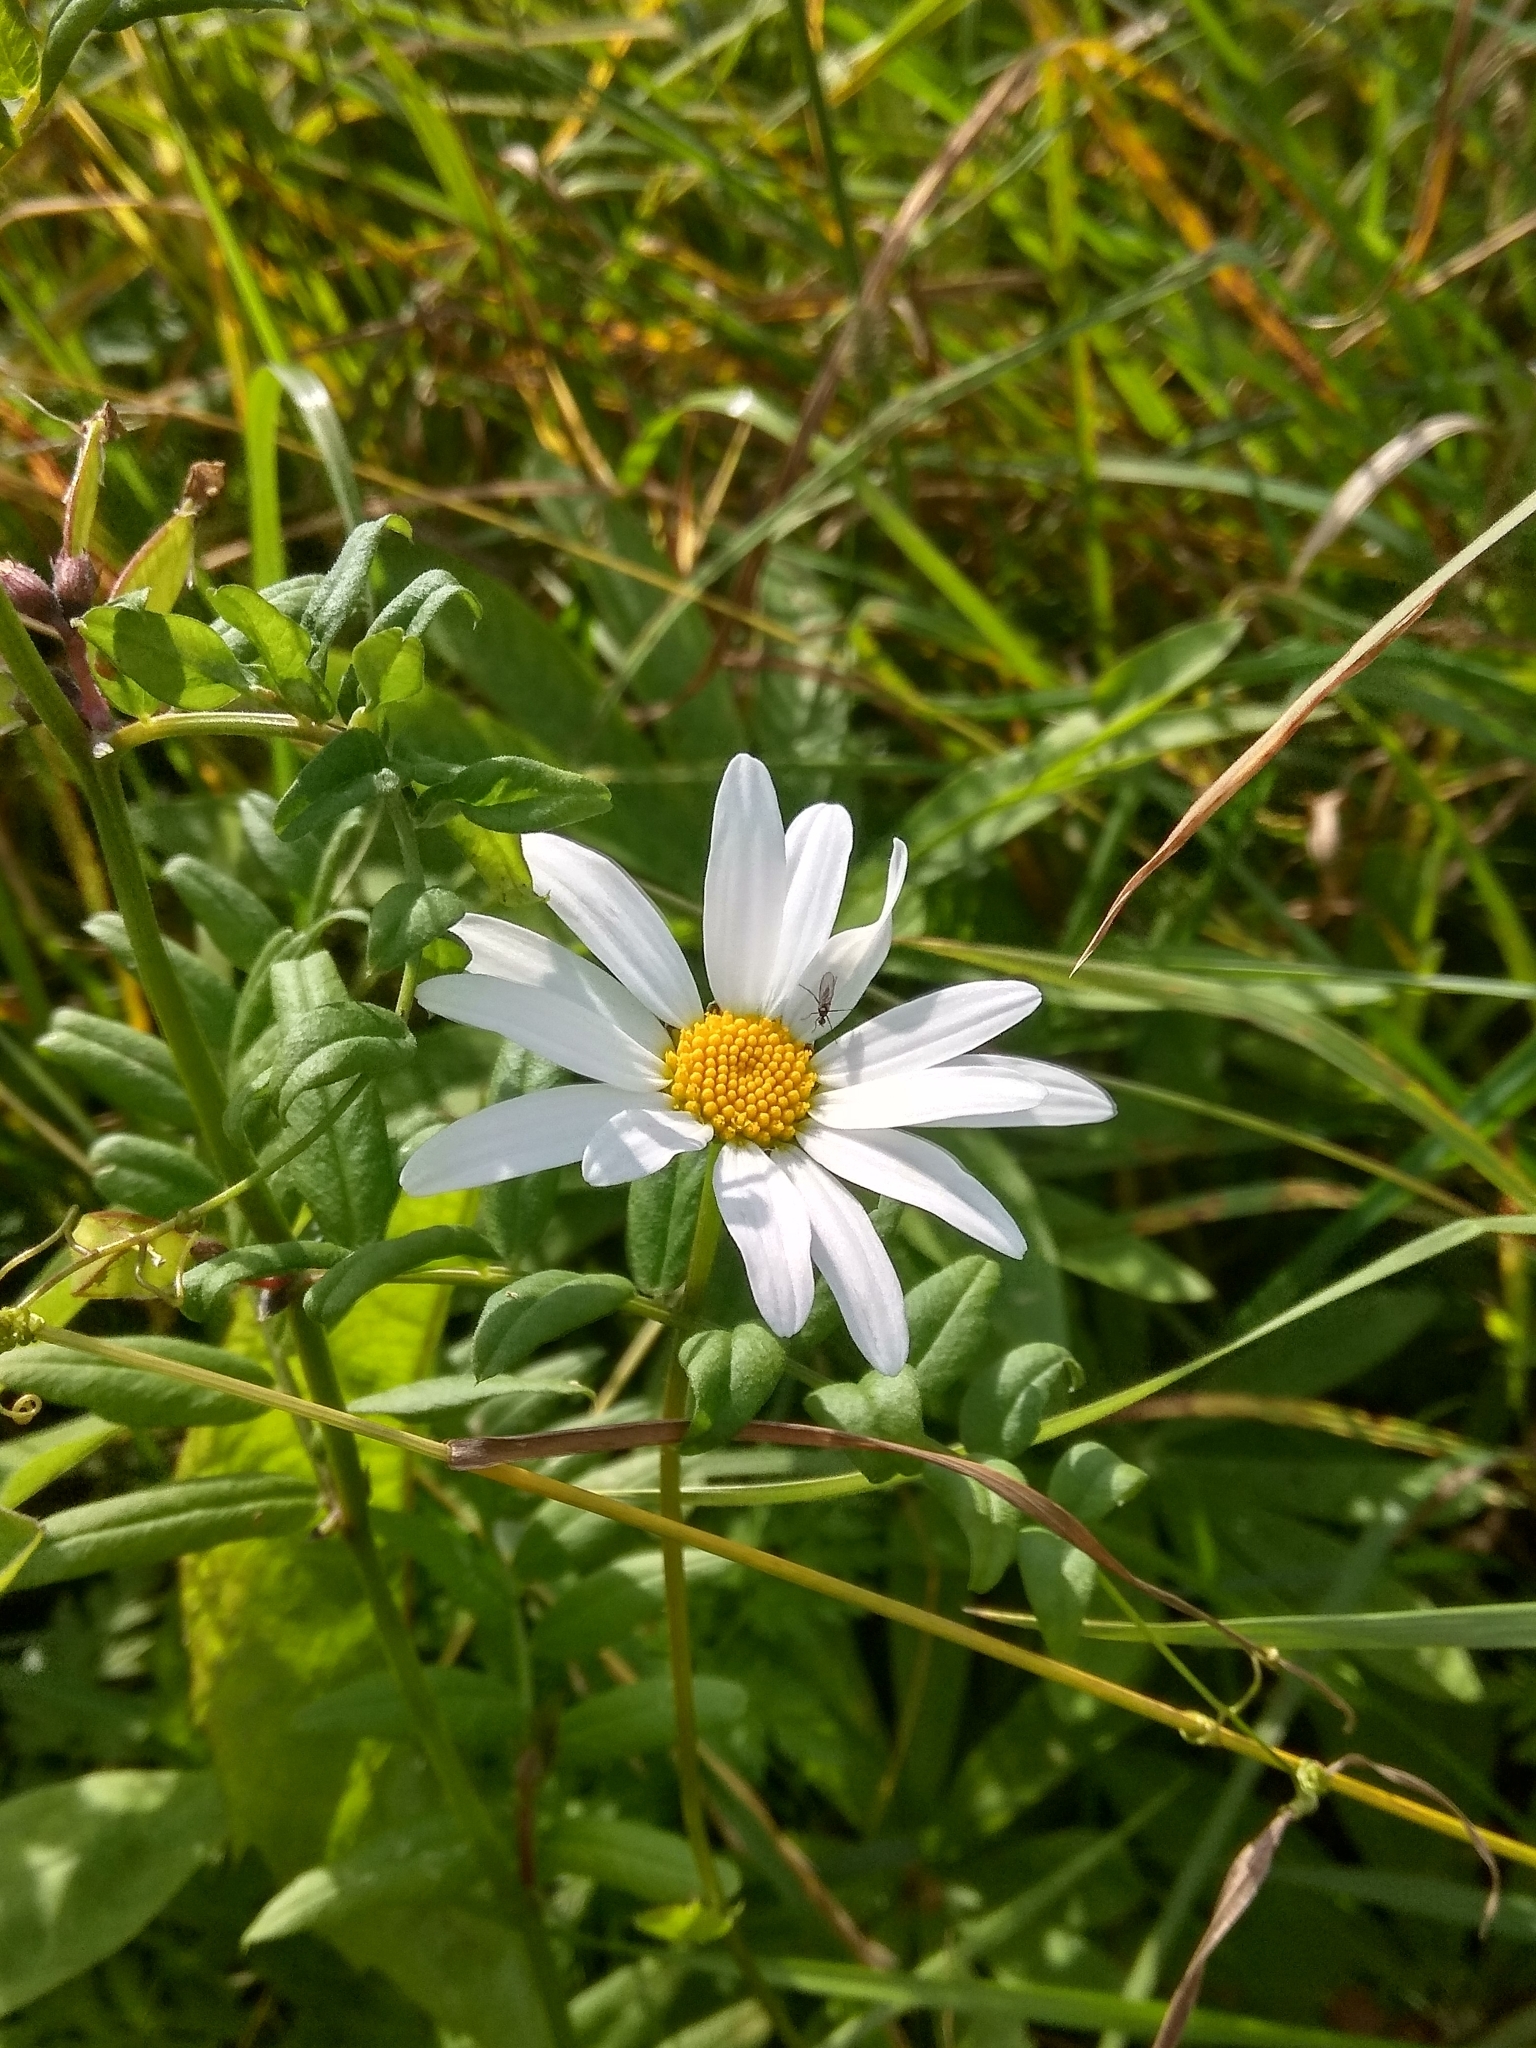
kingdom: Plantae
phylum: Tracheophyta
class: Magnoliopsida
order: Asterales
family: Asteraceae
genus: Leucanthemum
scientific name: Leucanthemum vulgare
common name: Oxeye daisy
